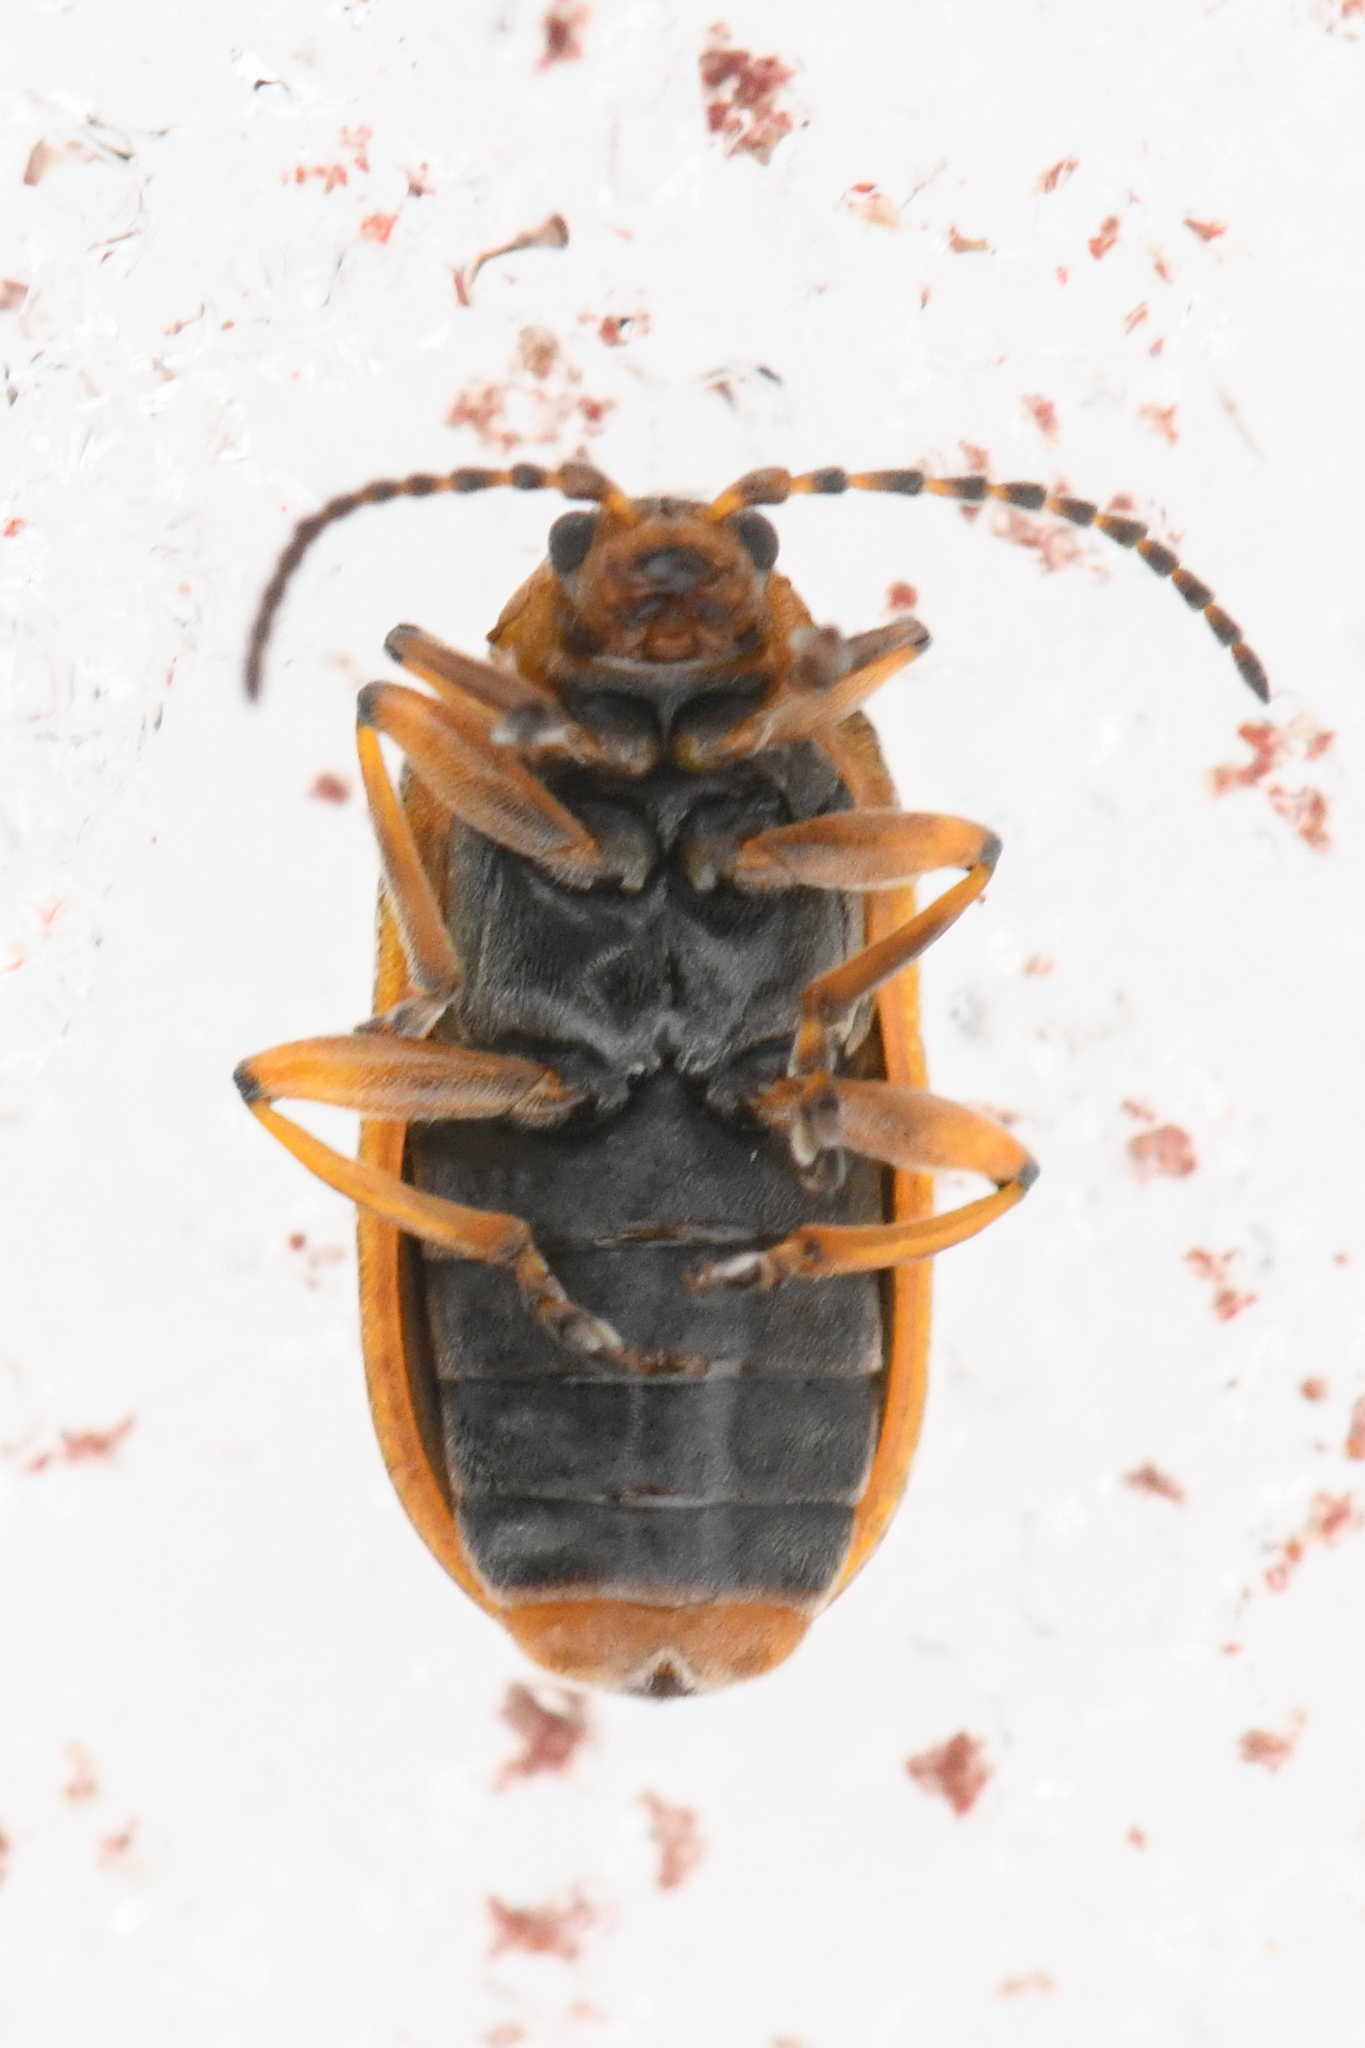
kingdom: Animalia
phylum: Arthropoda
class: Insecta
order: Coleoptera
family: Chrysomelidae
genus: Galerucella
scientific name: Galerucella nymphaeae
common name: Leaf beetle
